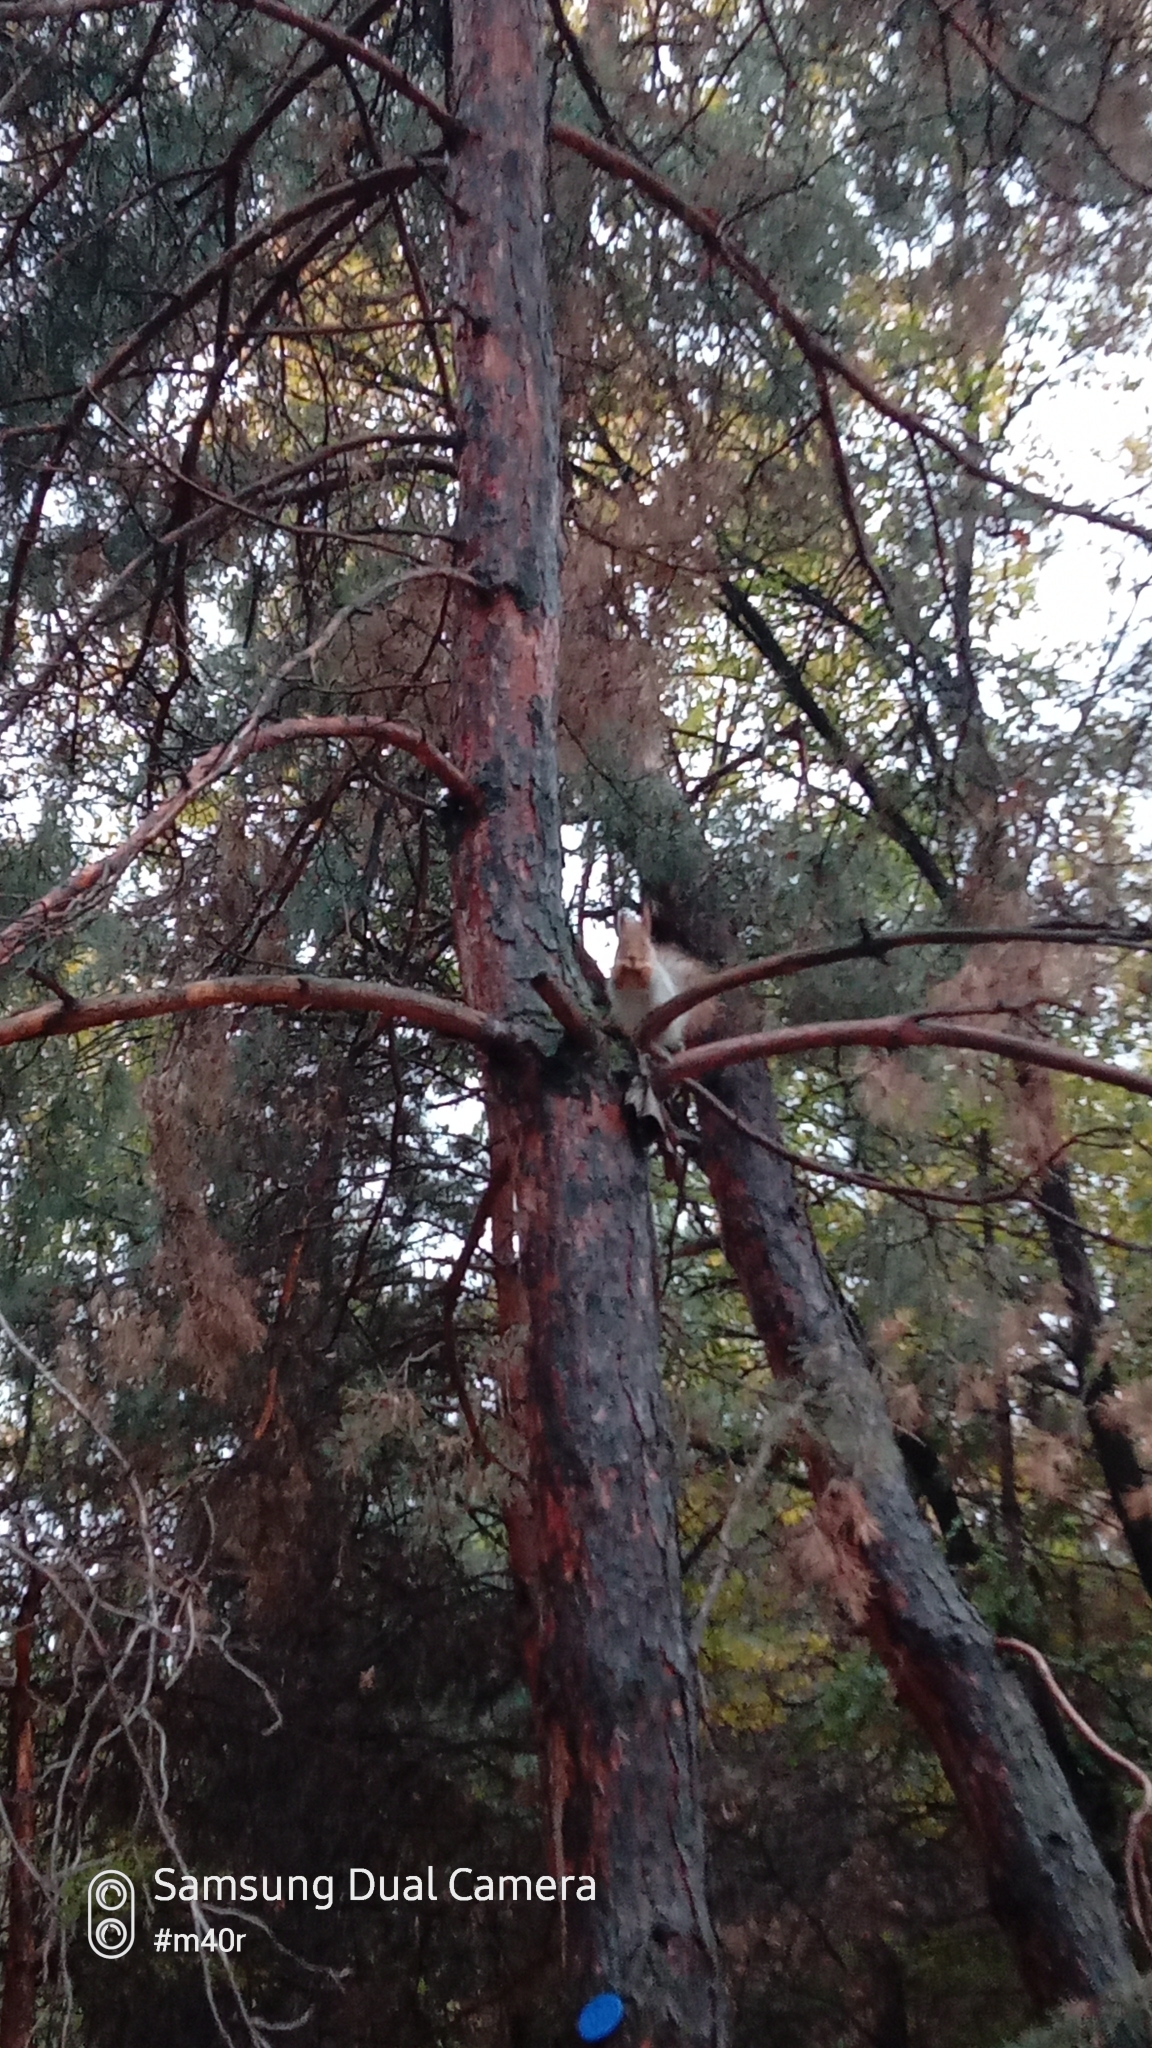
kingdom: Animalia
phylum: Chordata
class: Mammalia
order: Rodentia
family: Sciuridae
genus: Sciurus
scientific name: Sciurus vulgaris
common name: Eurasian red squirrel
